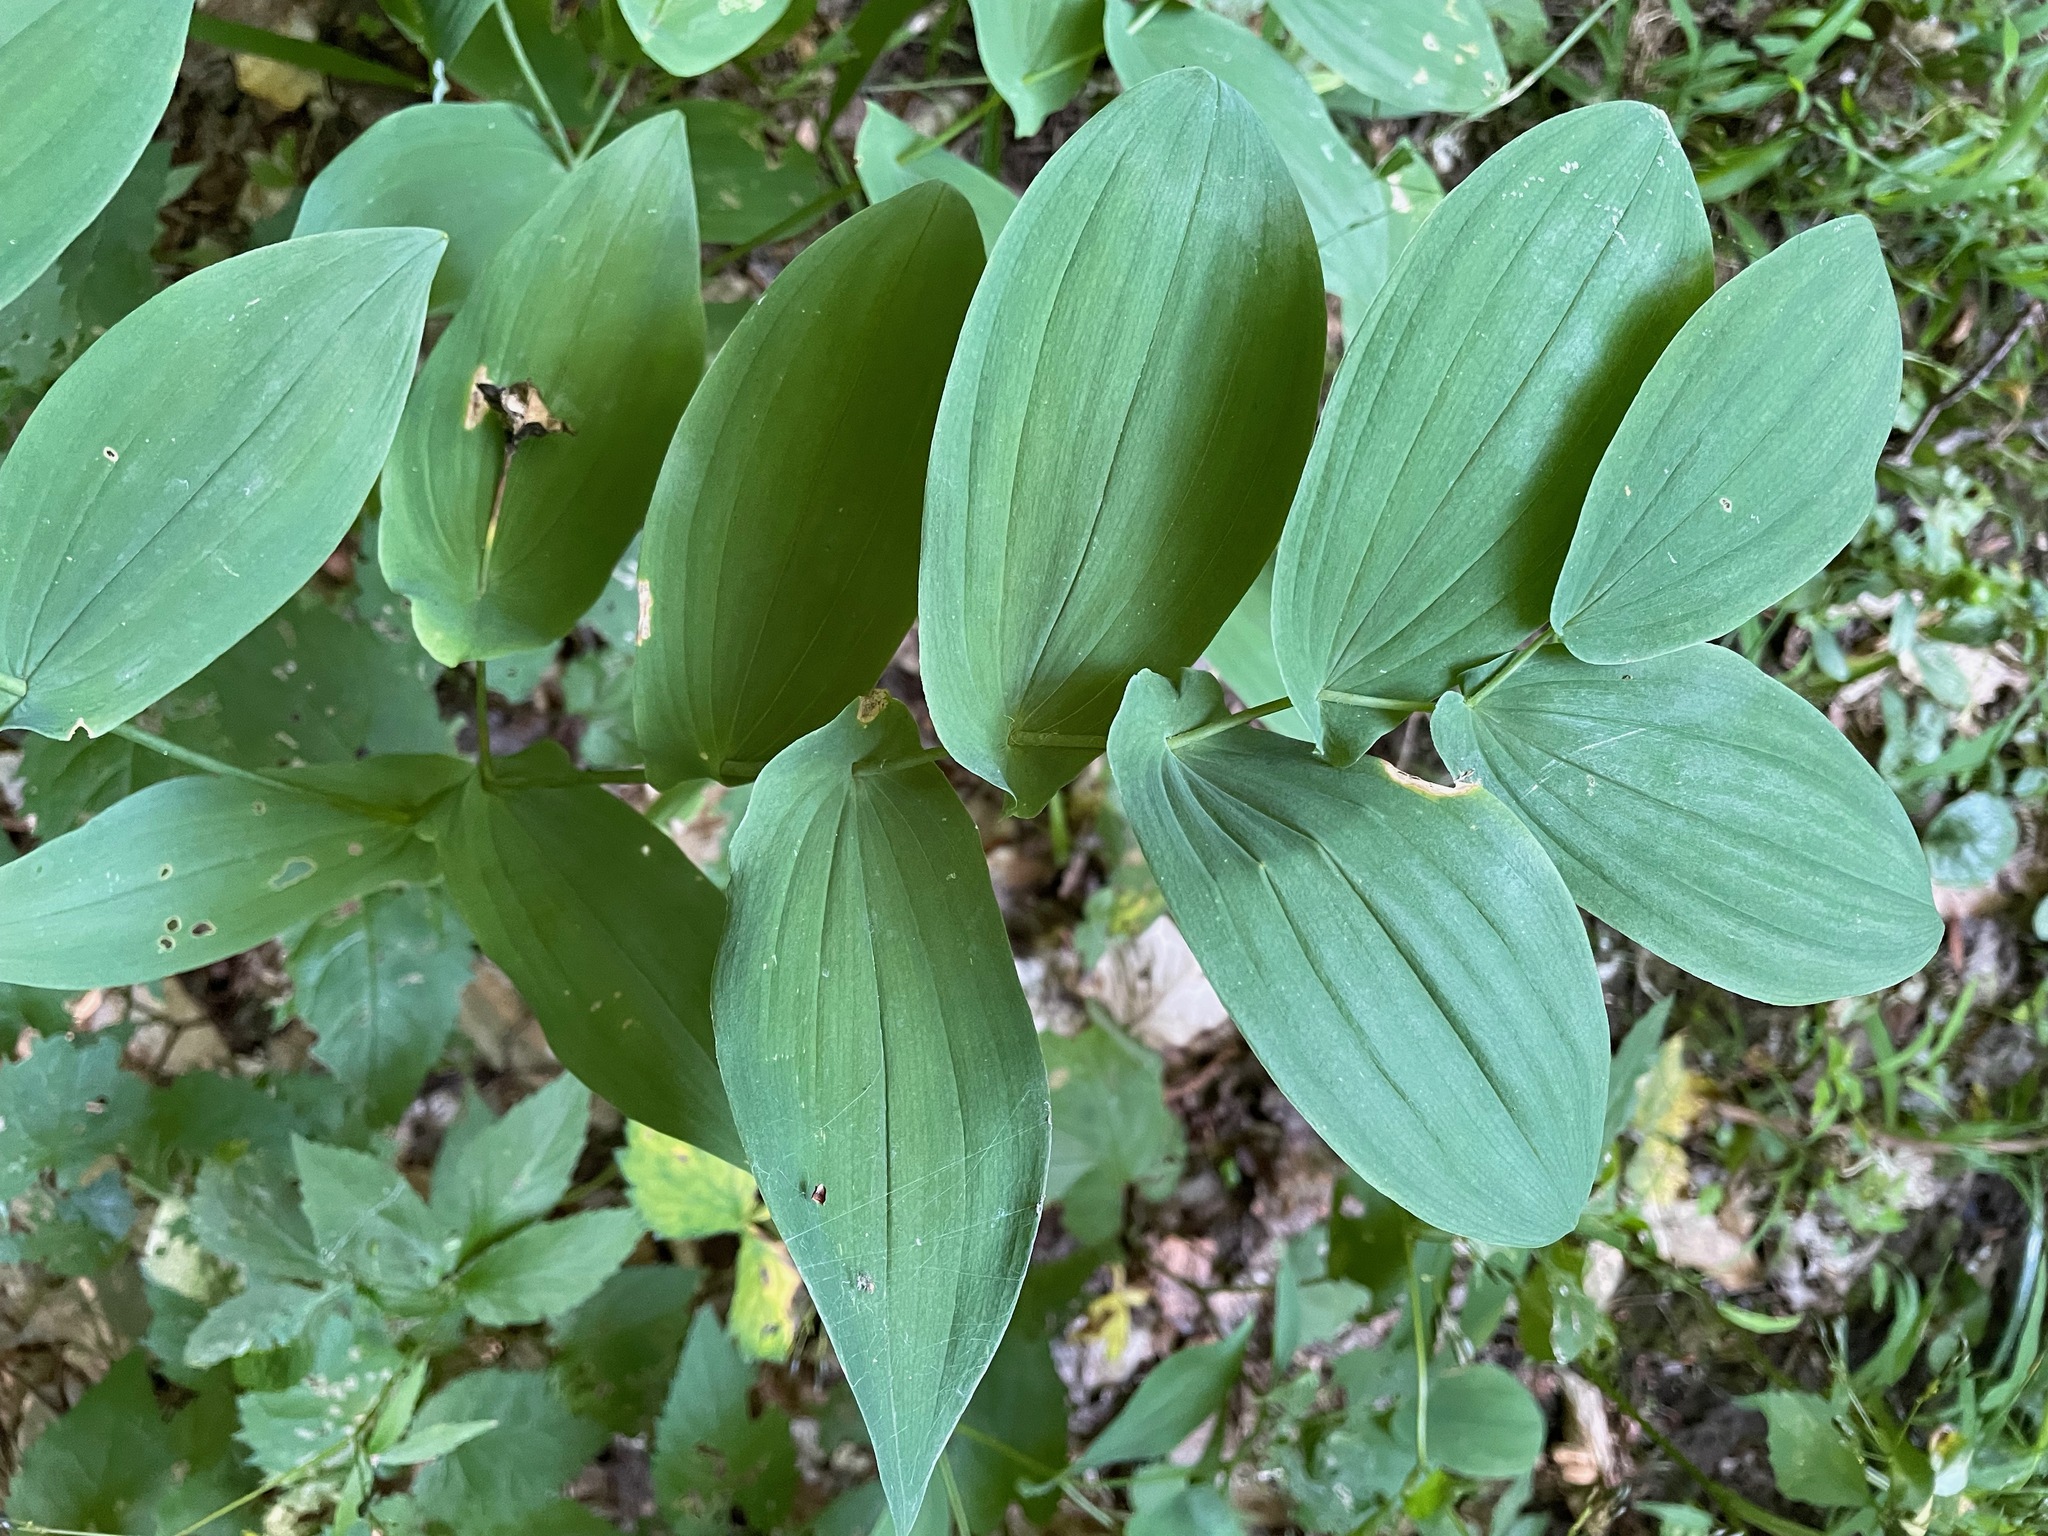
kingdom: Plantae
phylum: Tracheophyta
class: Liliopsida
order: Liliales
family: Colchicaceae
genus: Uvularia
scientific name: Uvularia grandiflora
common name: Bellwort
